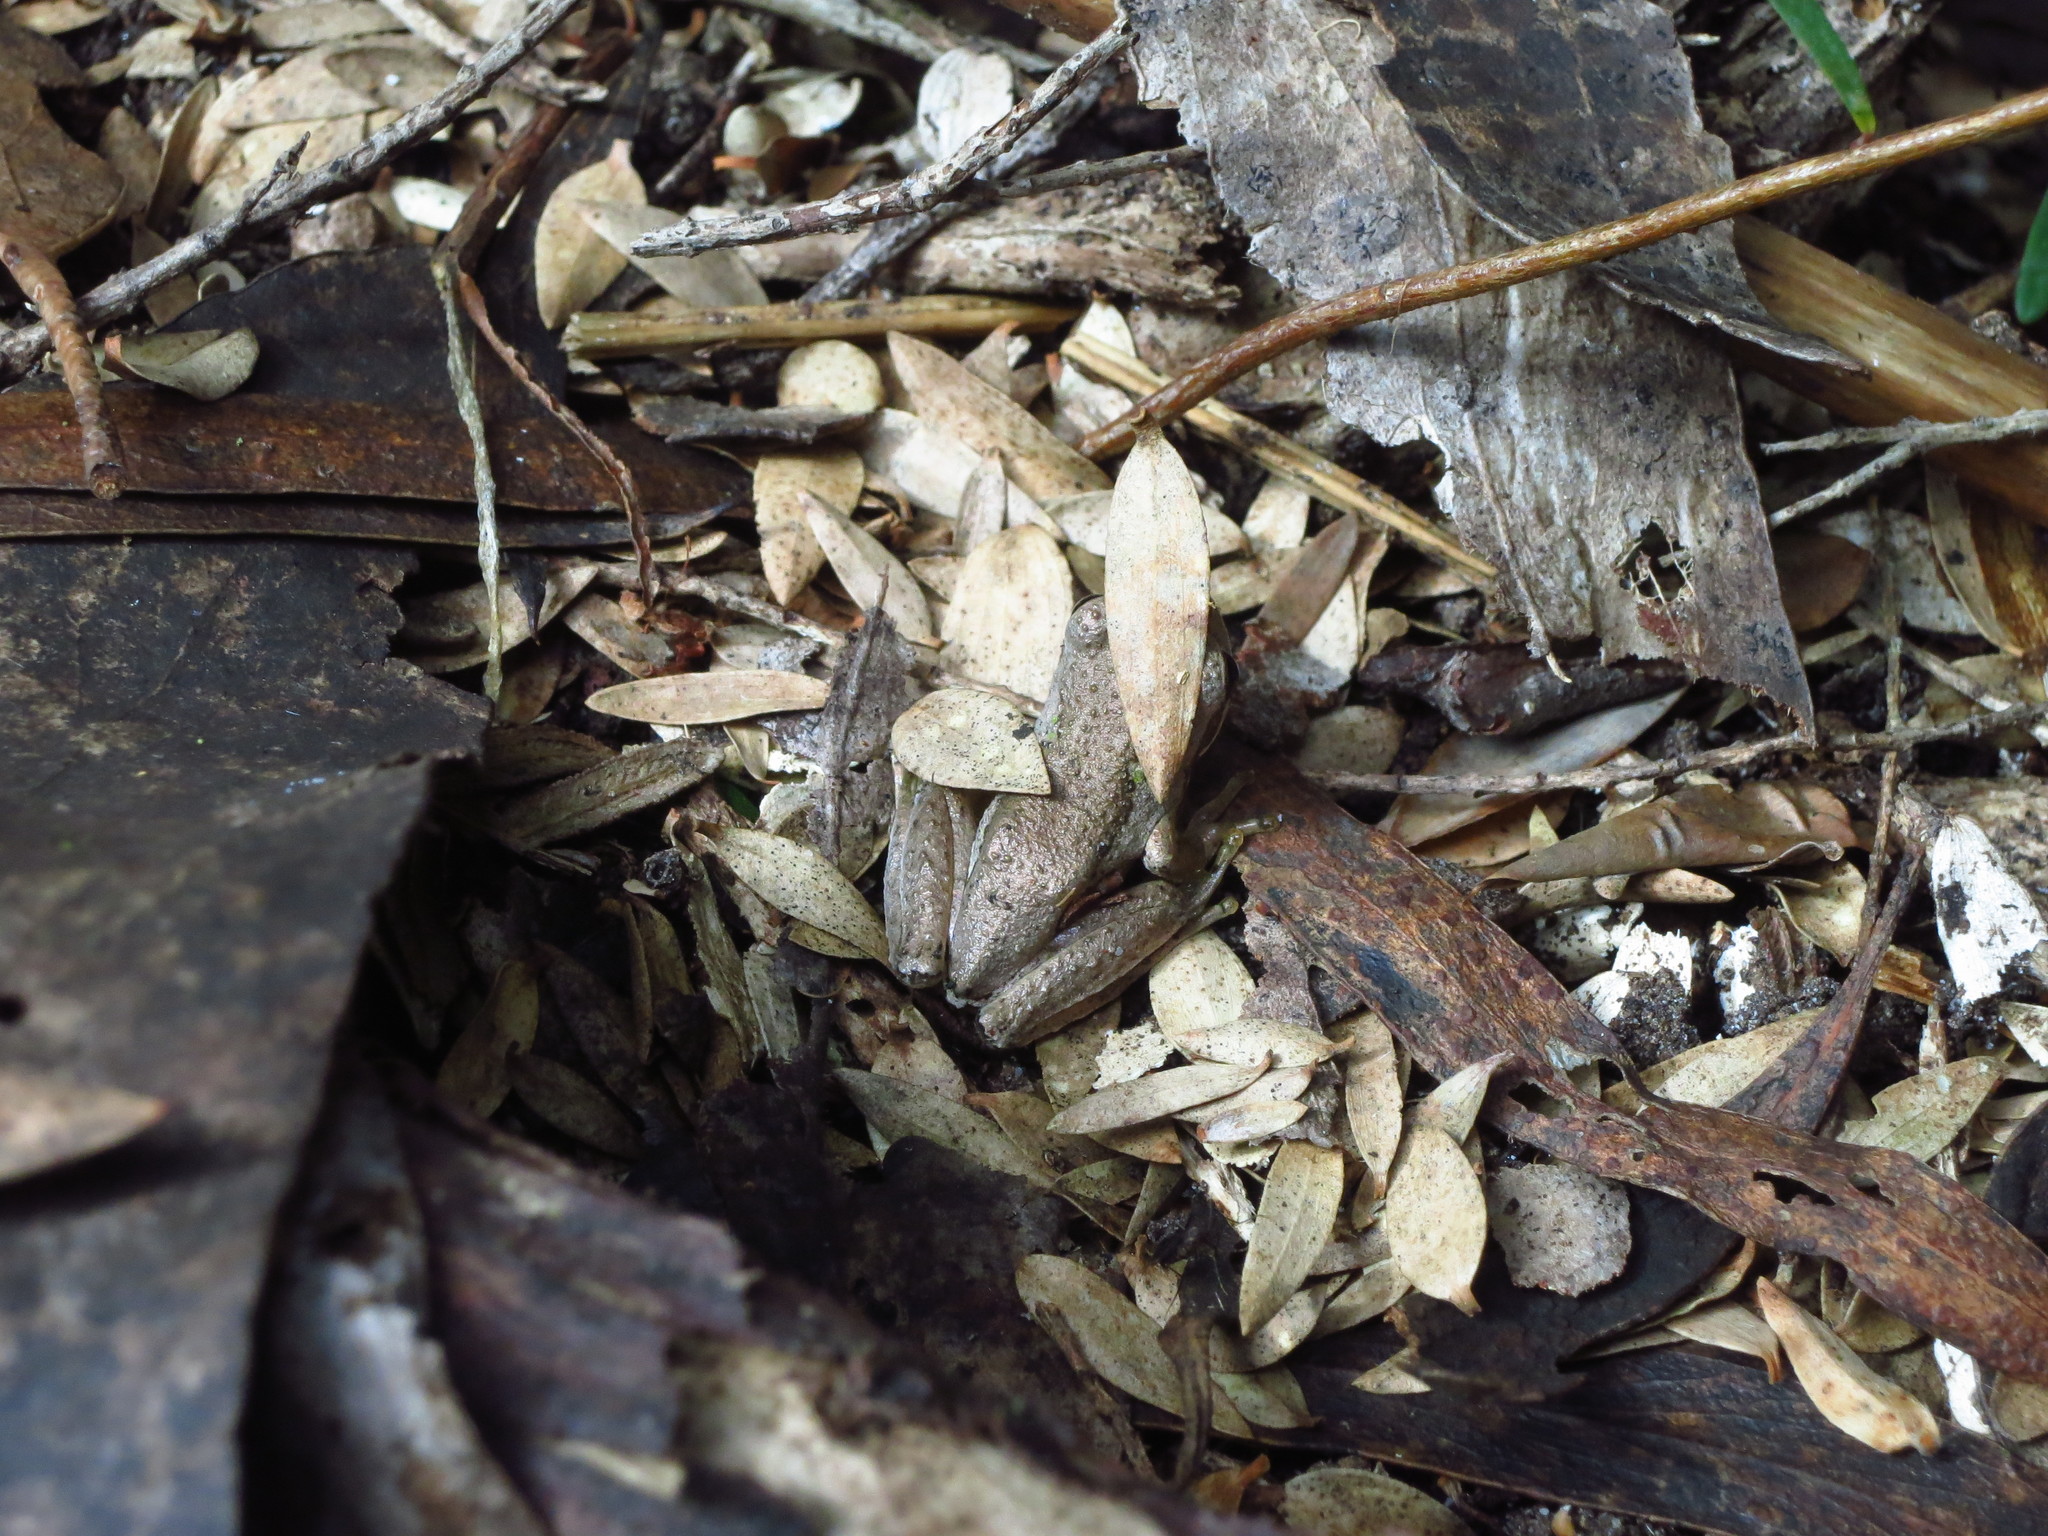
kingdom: Animalia
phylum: Chordata
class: Amphibia
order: Anura
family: Pelodryadidae
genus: Litoria
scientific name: Litoria ewingii
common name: Southern brown tree frog
